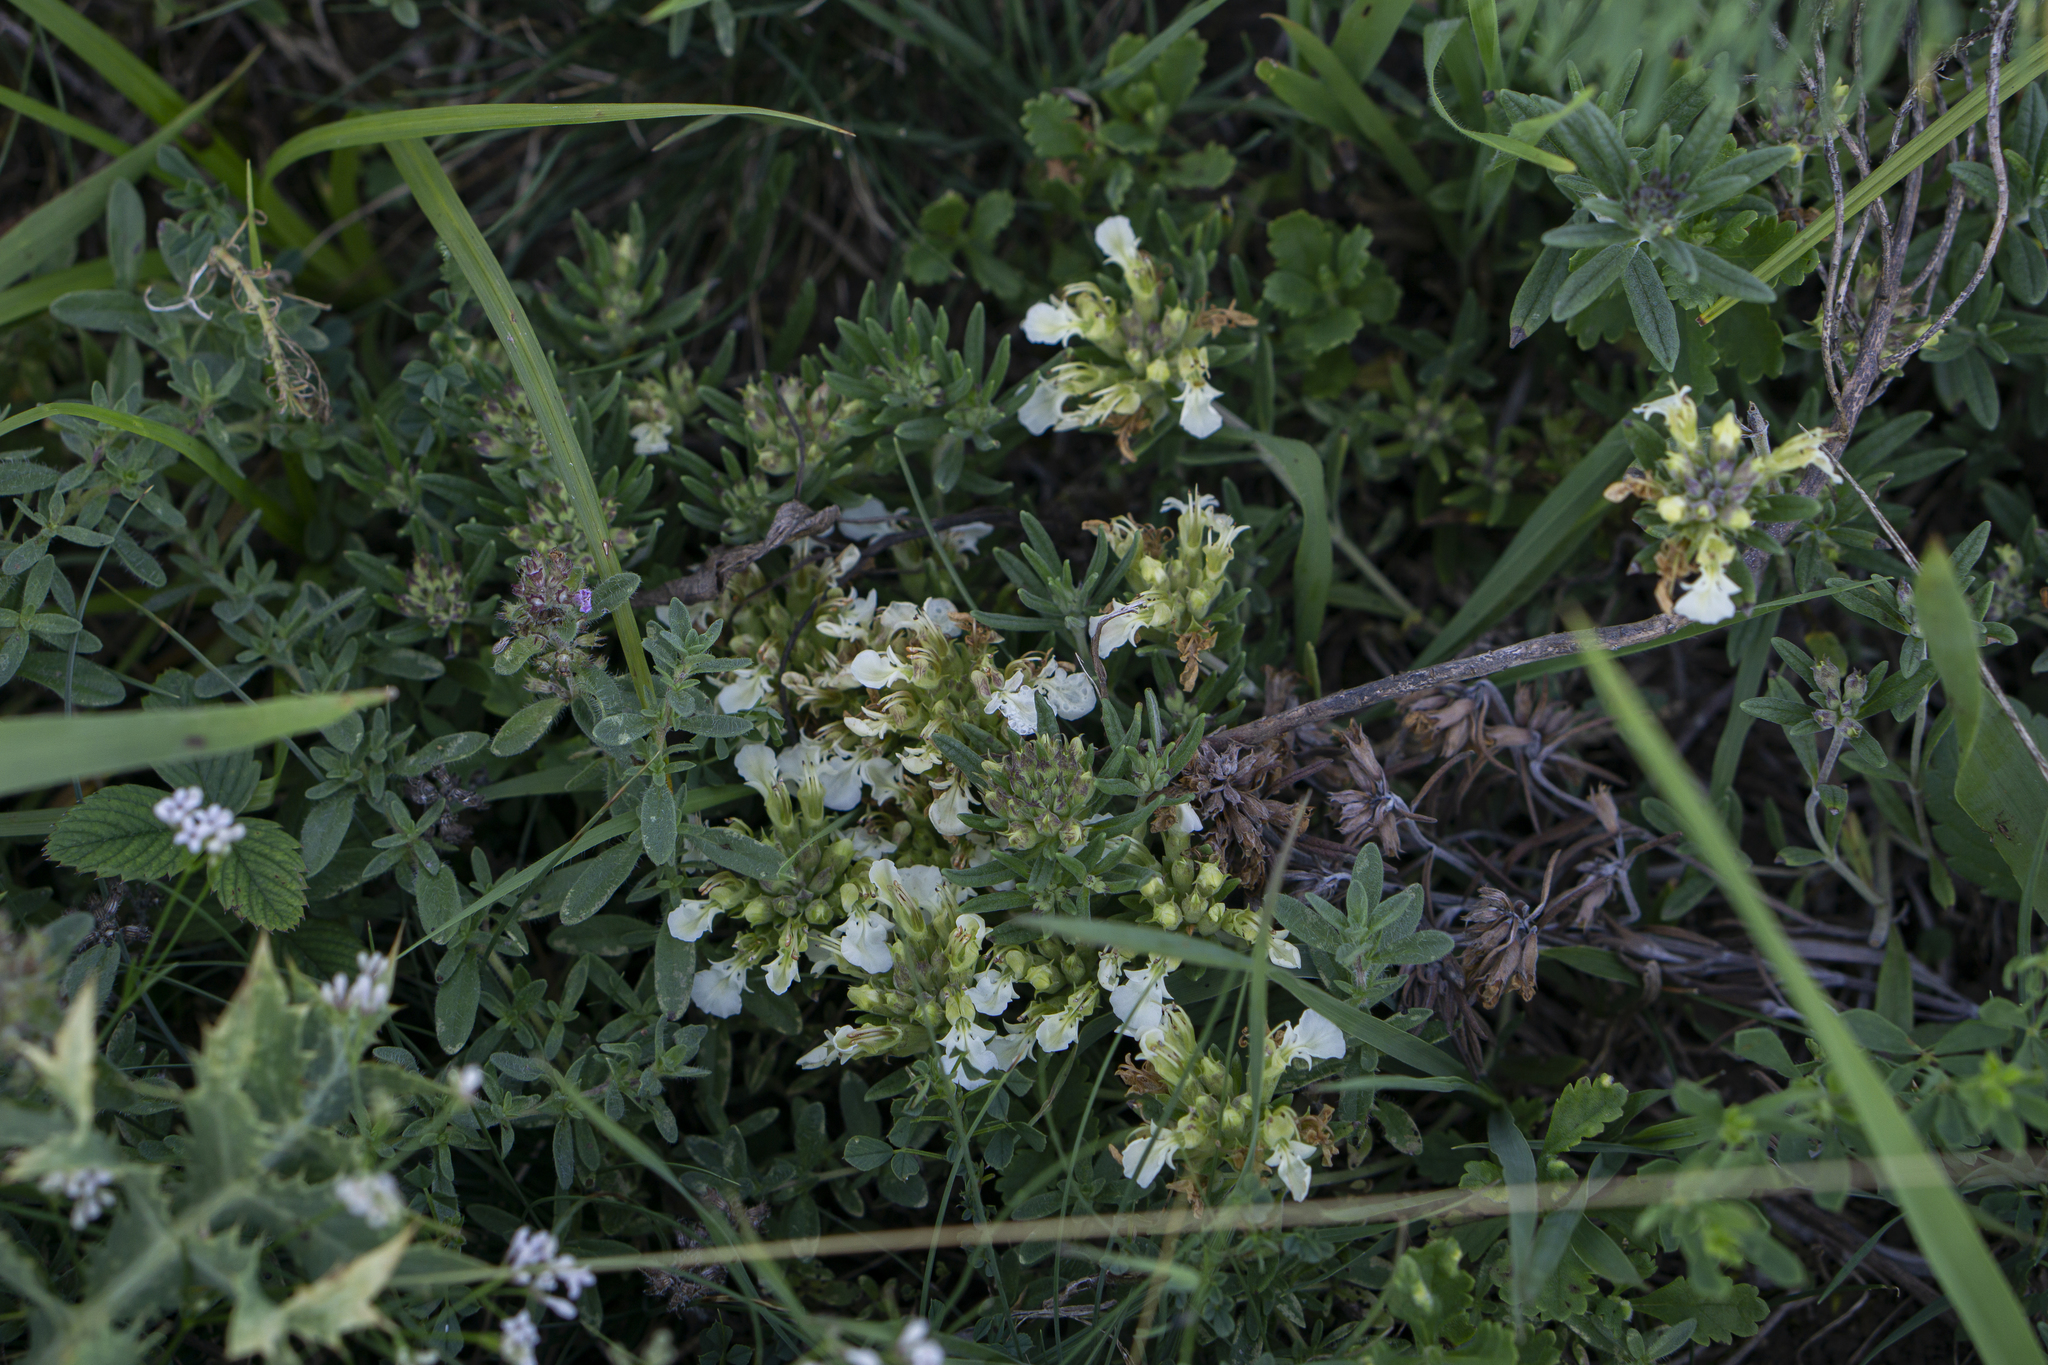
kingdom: Plantae
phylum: Tracheophyta
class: Magnoliopsida
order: Lamiales
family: Lamiaceae
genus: Teucrium
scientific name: Teucrium montanum
